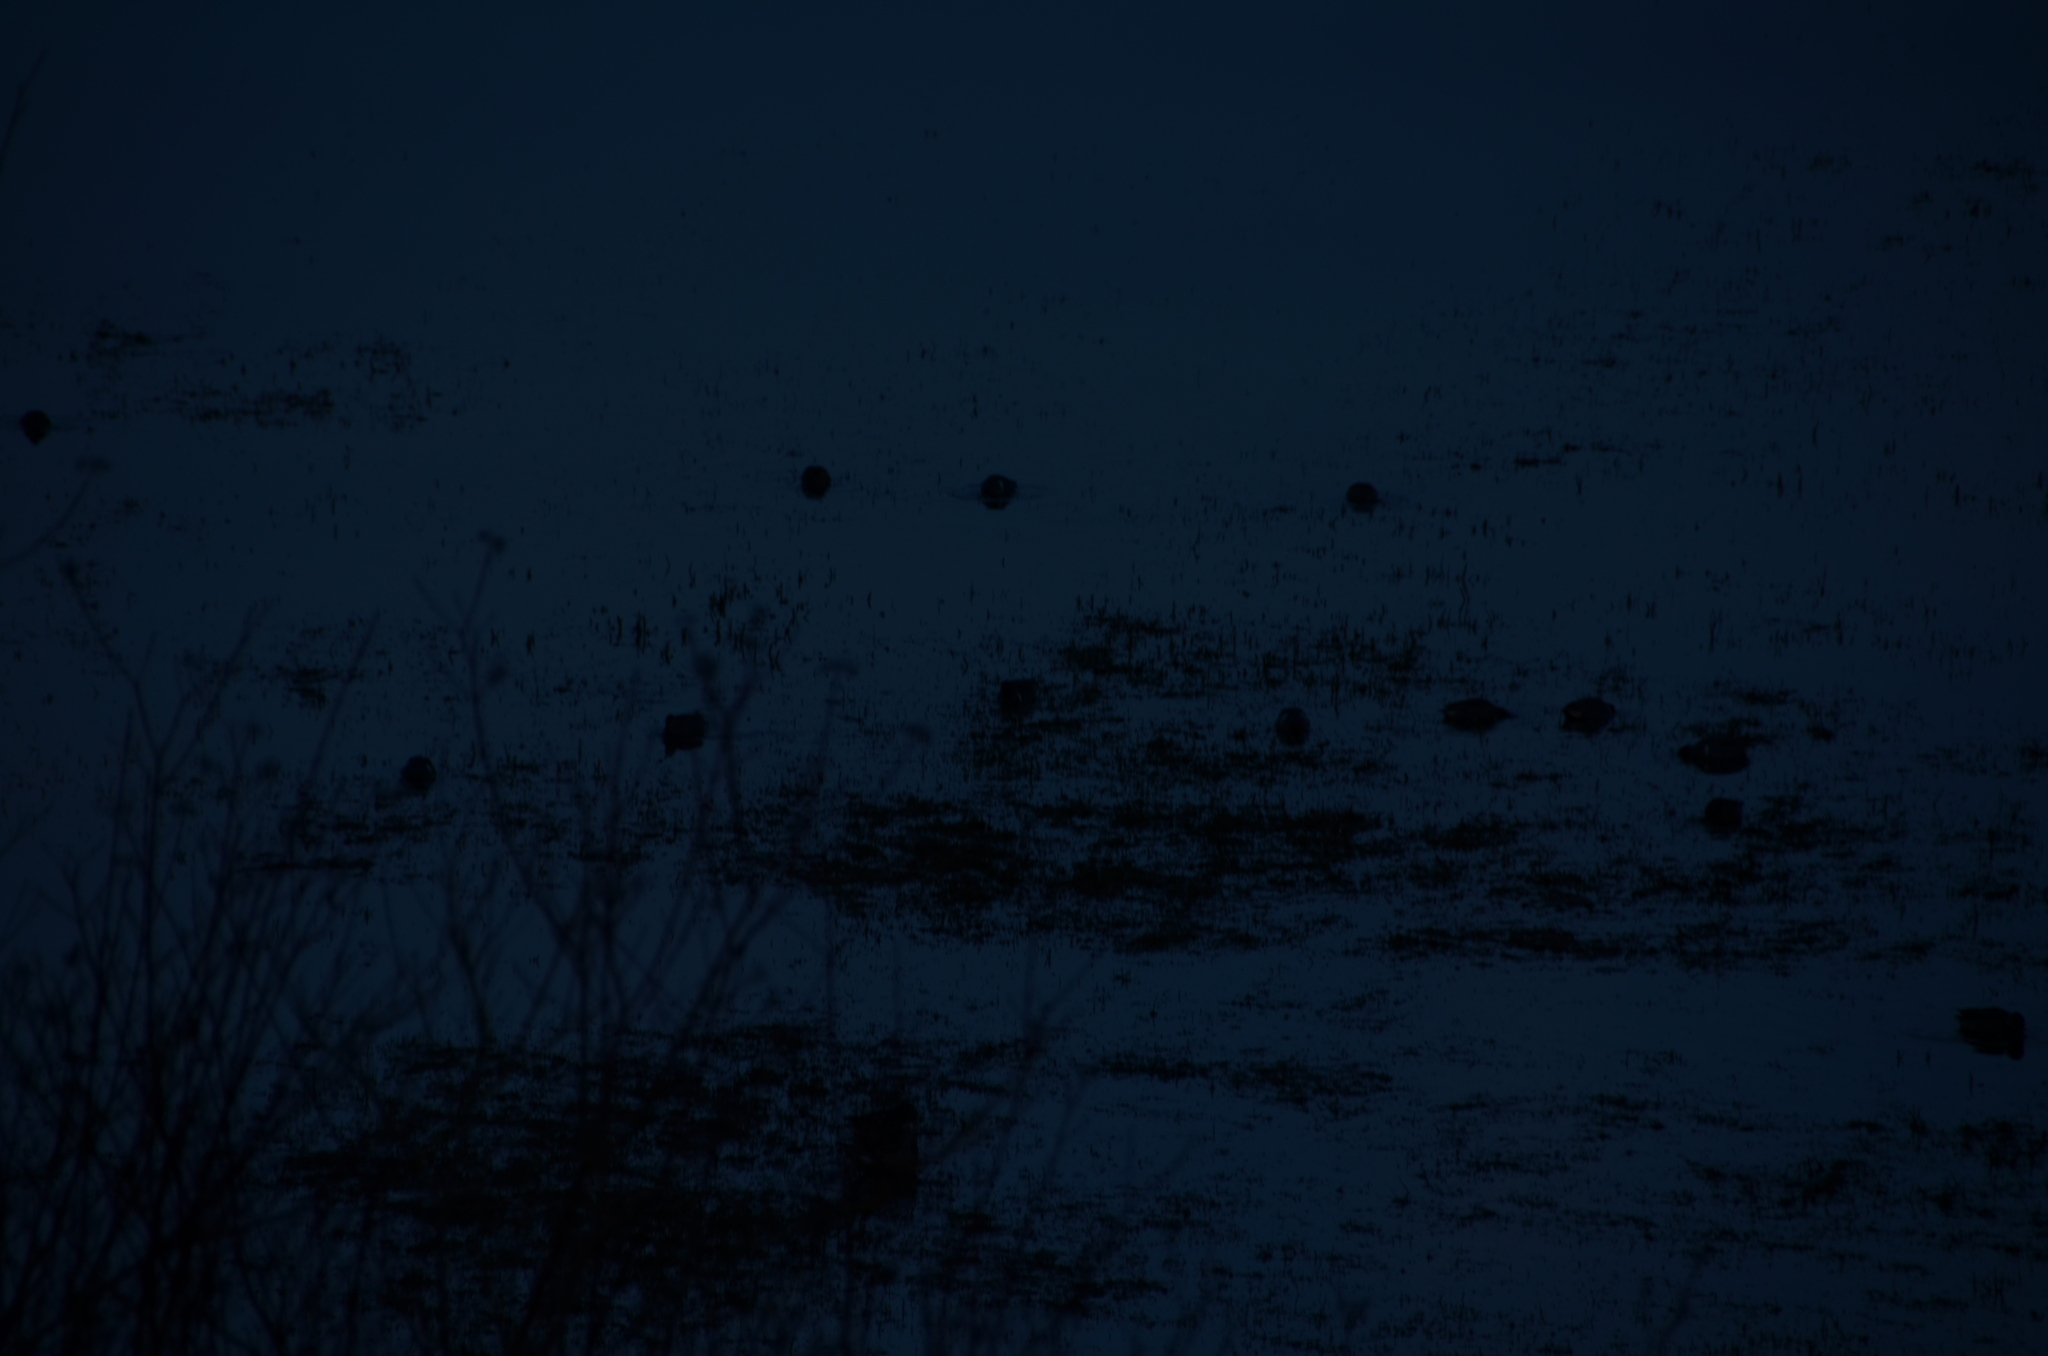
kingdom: Animalia
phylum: Chordata
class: Aves
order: Anseriformes
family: Anatidae
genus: Anas
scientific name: Anas crecca
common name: Eurasian teal
